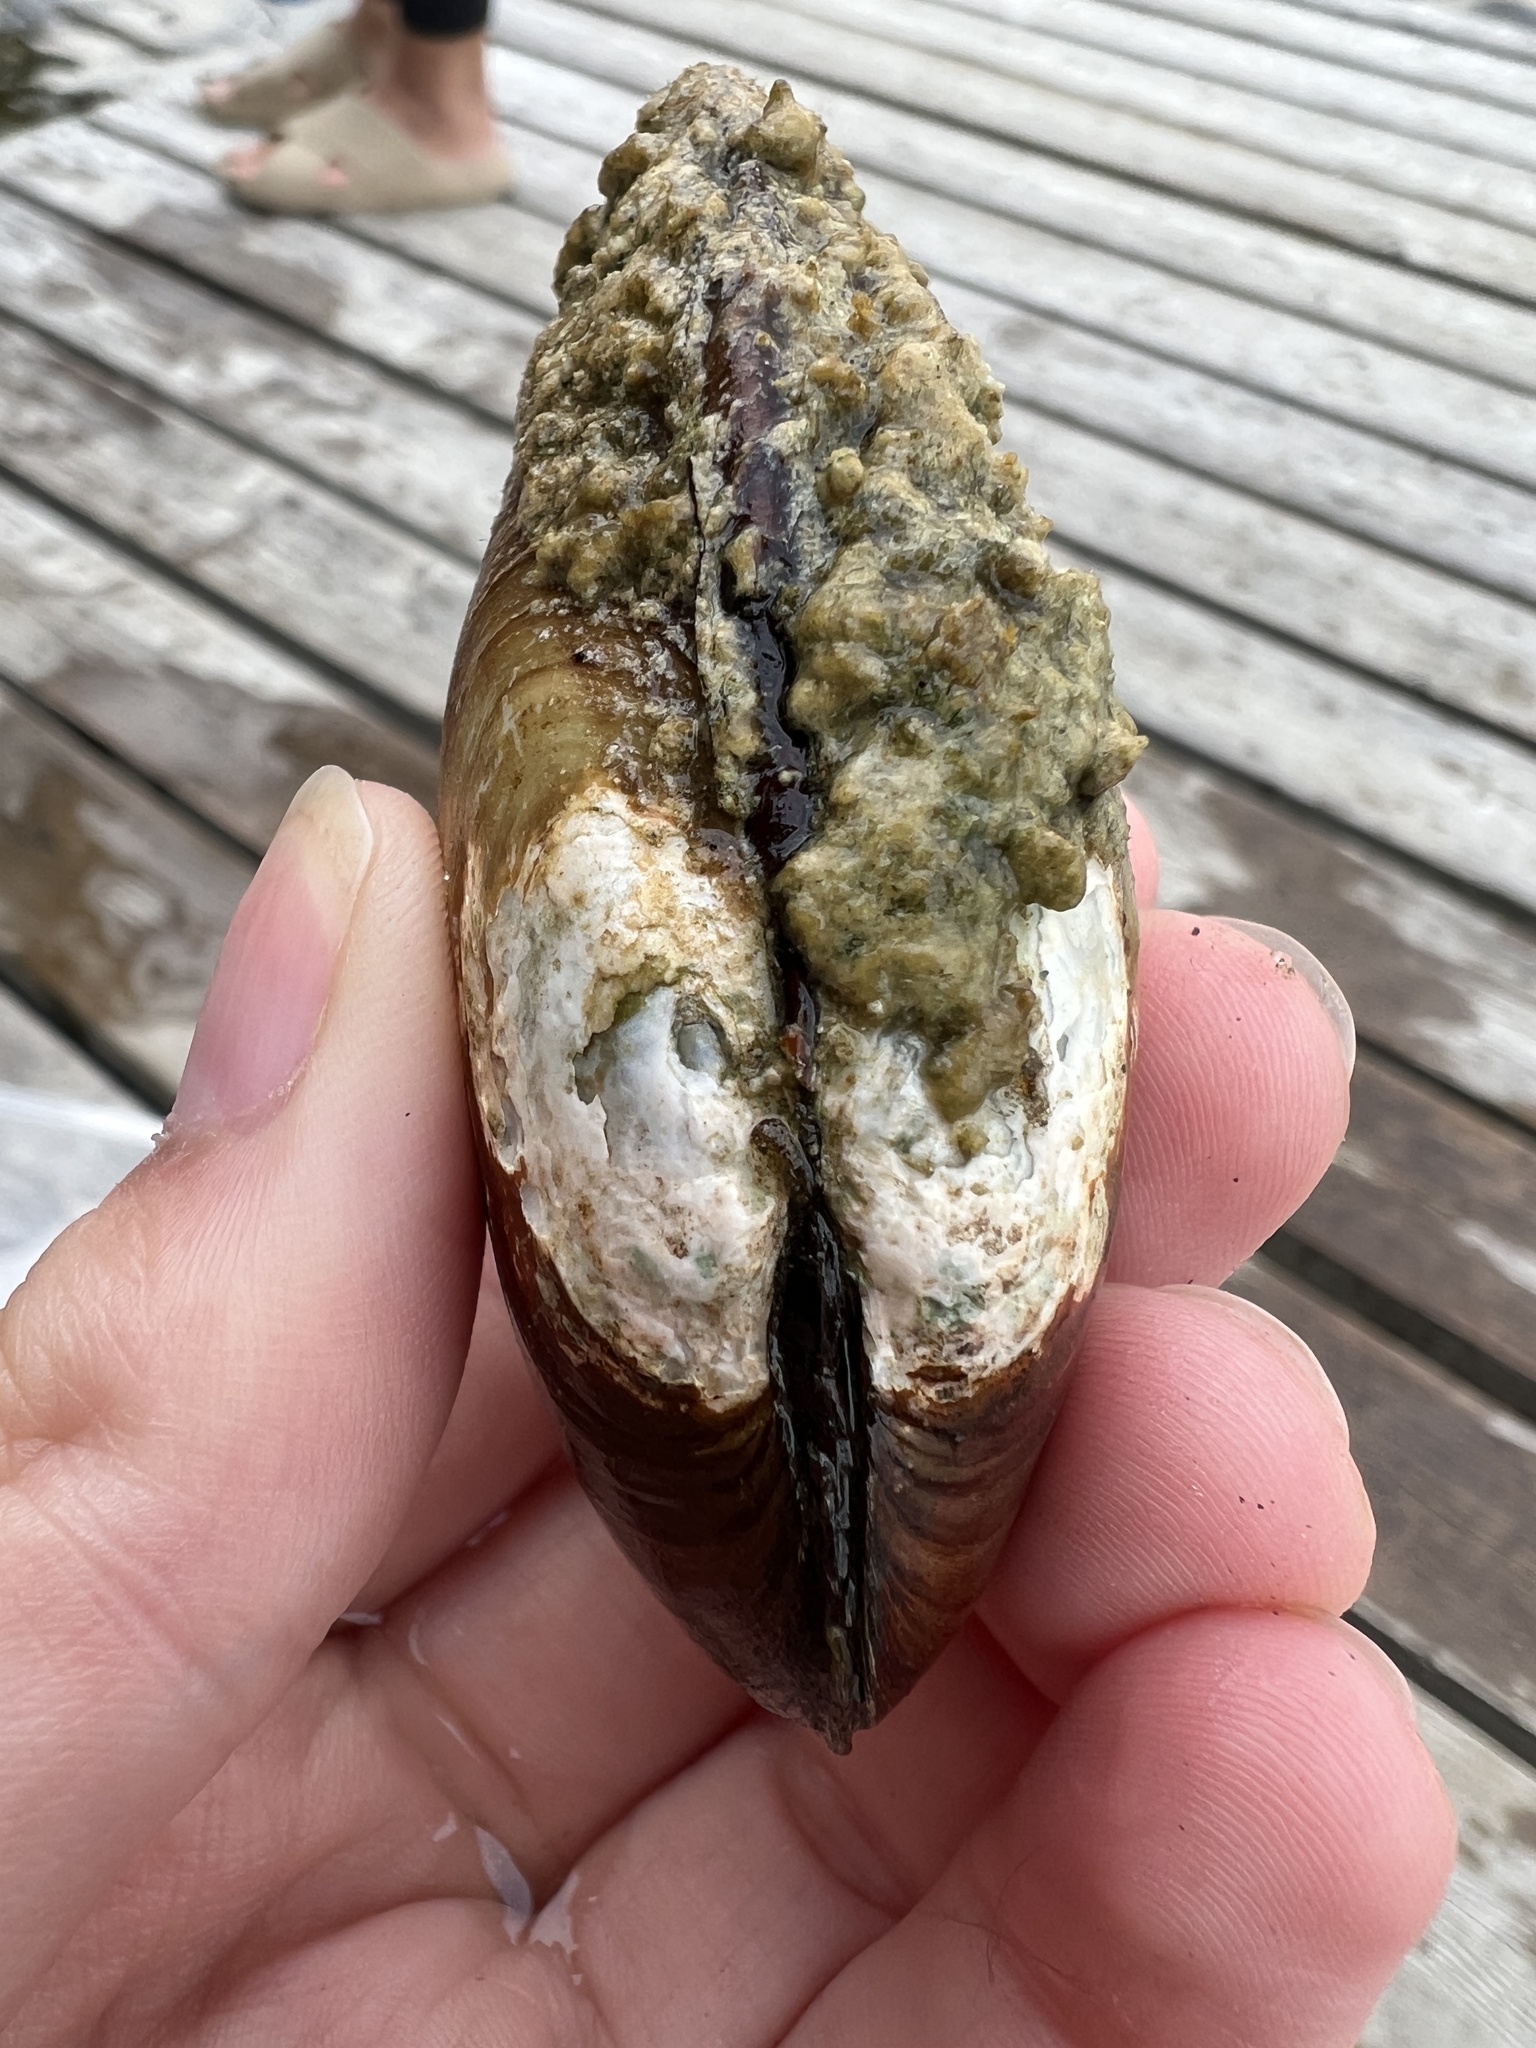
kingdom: Animalia
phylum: Mollusca
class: Bivalvia
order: Unionida
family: Unionidae
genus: Lampsilis
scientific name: Lampsilis siliquoidea
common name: Fatmucket
